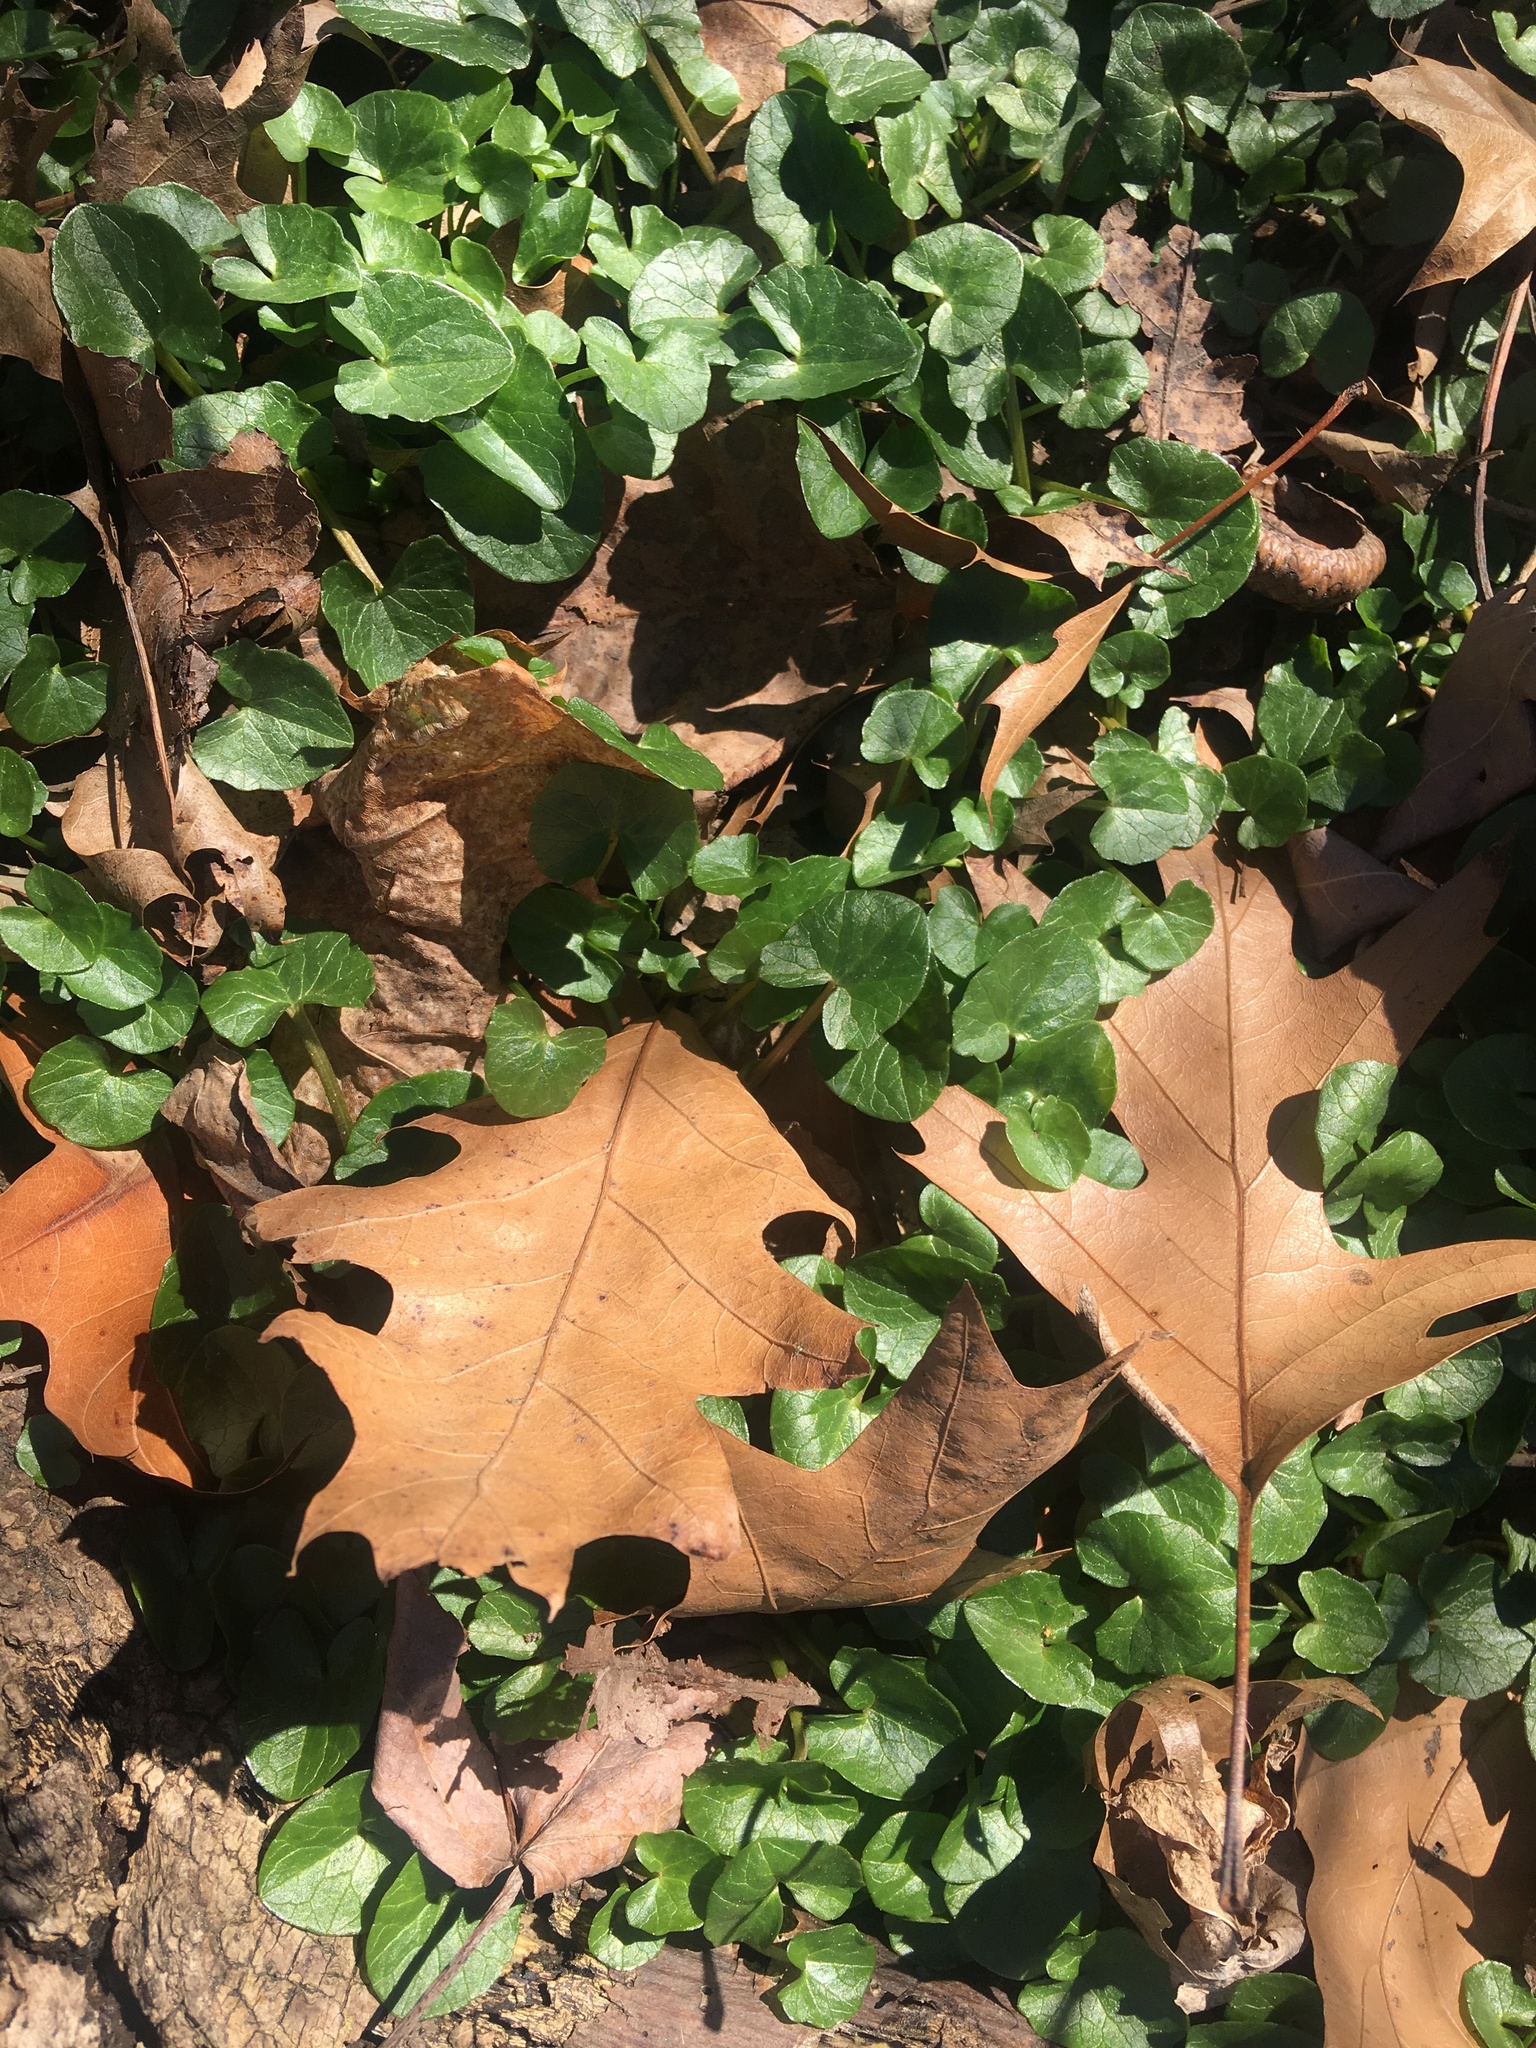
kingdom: Plantae
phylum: Tracheophyta
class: Magnoliopsida
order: Ranunculales
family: Ranunculaceae
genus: Ficaria
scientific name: Ficaria verna
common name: Lesser celandine
